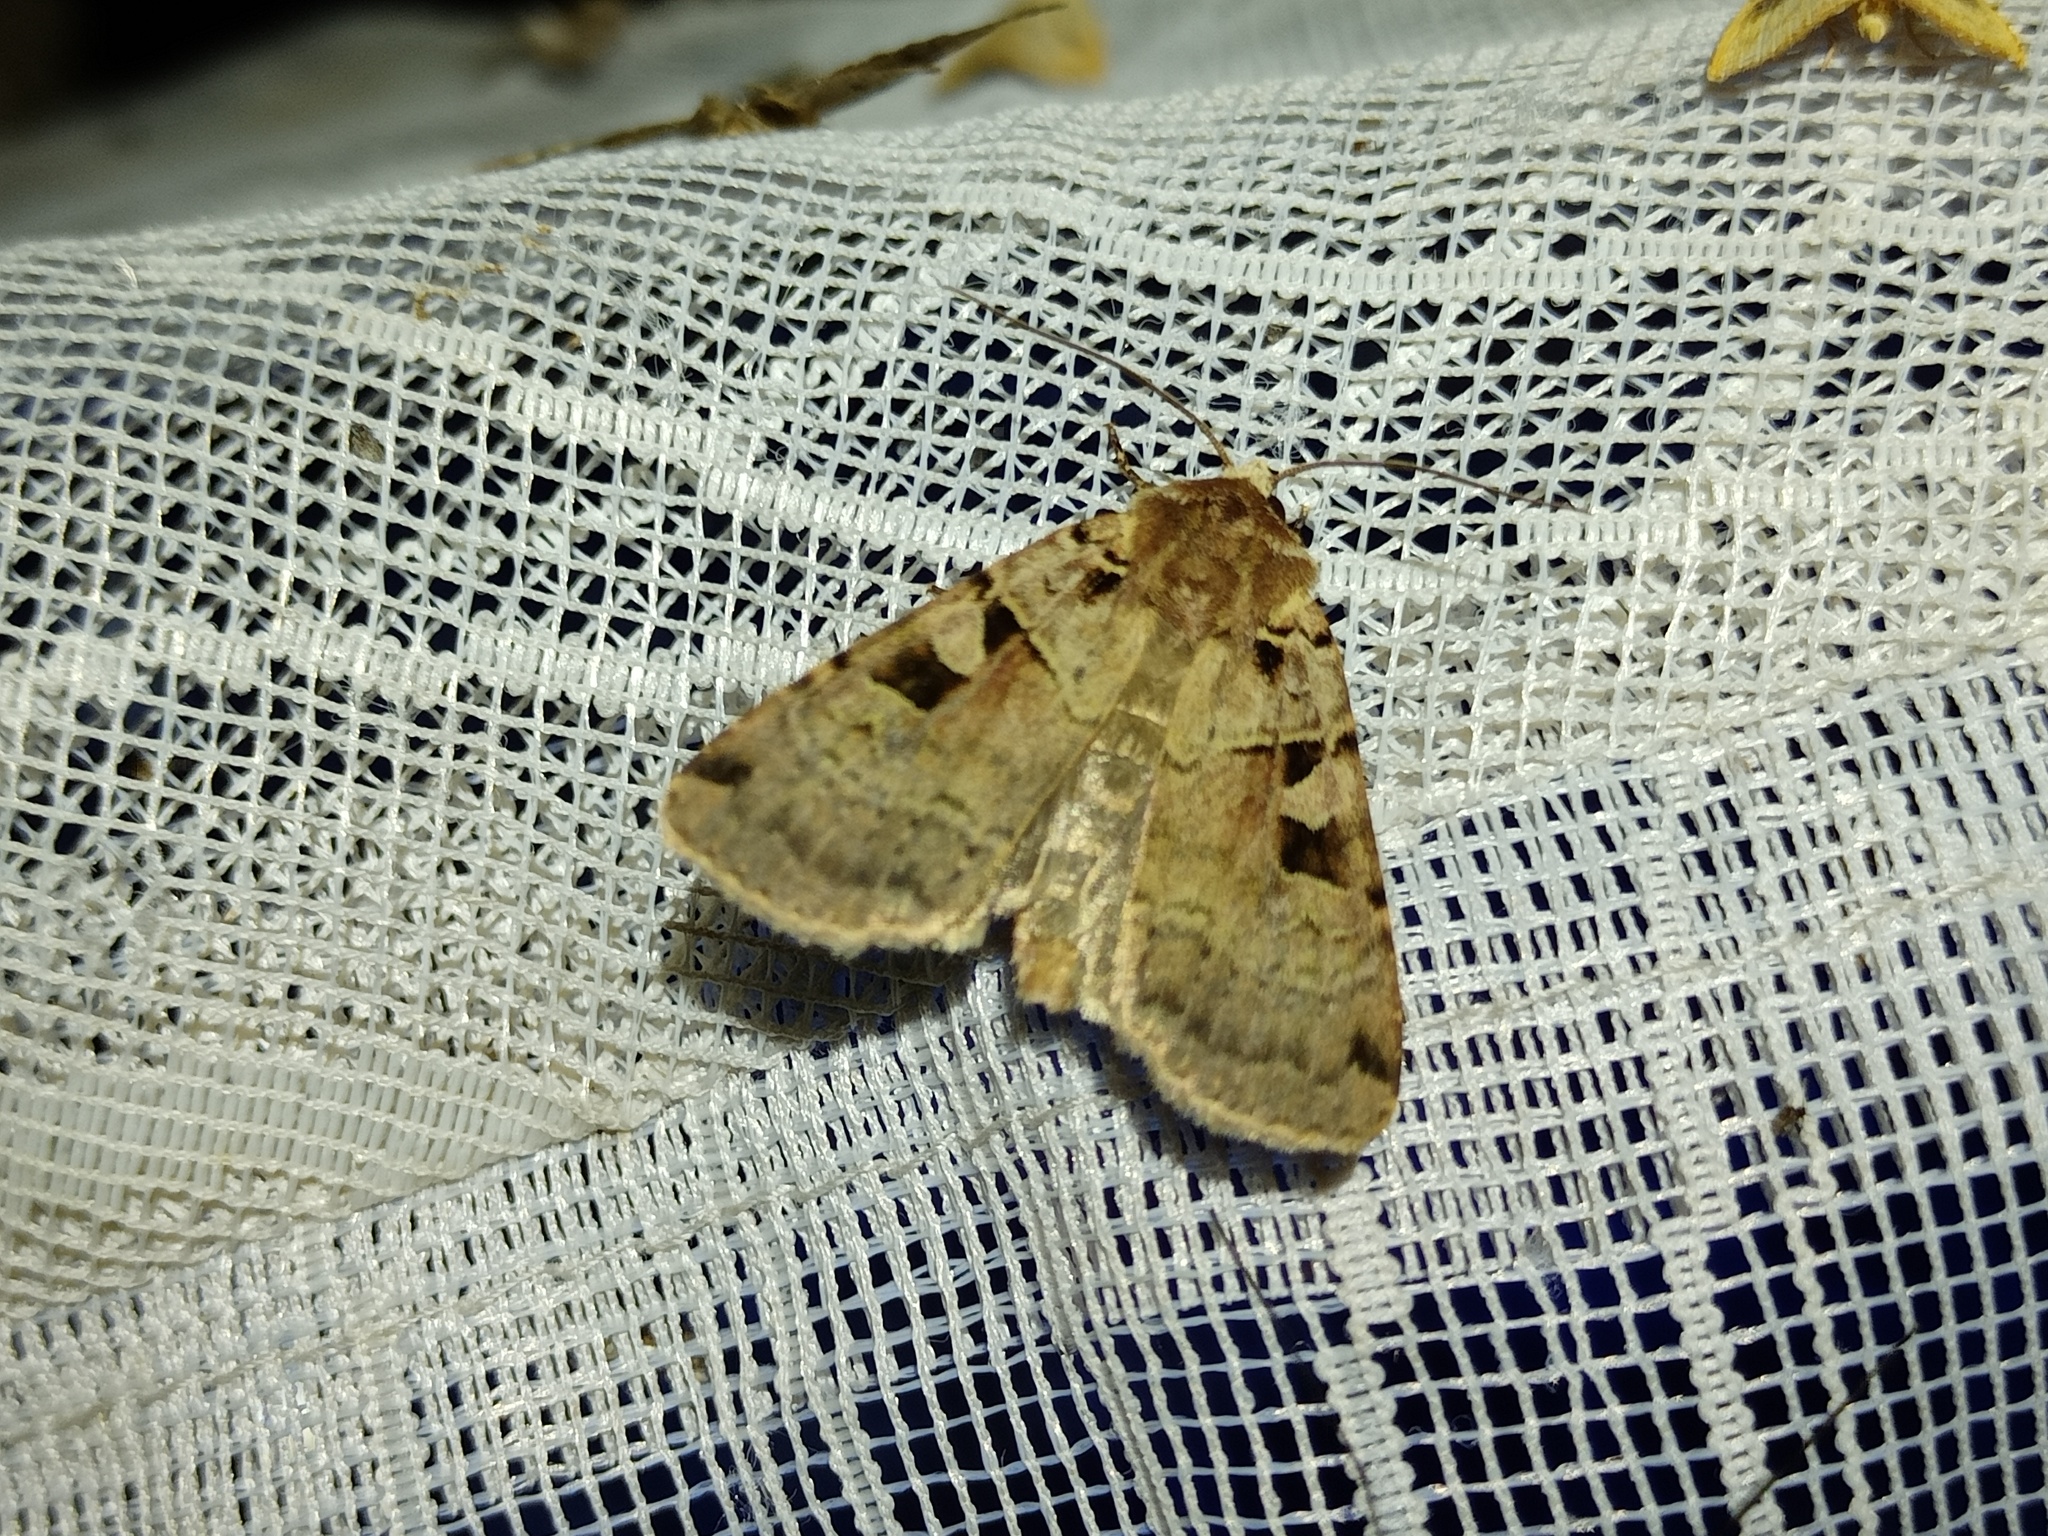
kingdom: Animalia
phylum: Arthropoda
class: Insecta
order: Lepidoptera
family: Noctuidae
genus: Xestia
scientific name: Xestia triangulum
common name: Double square-spot
